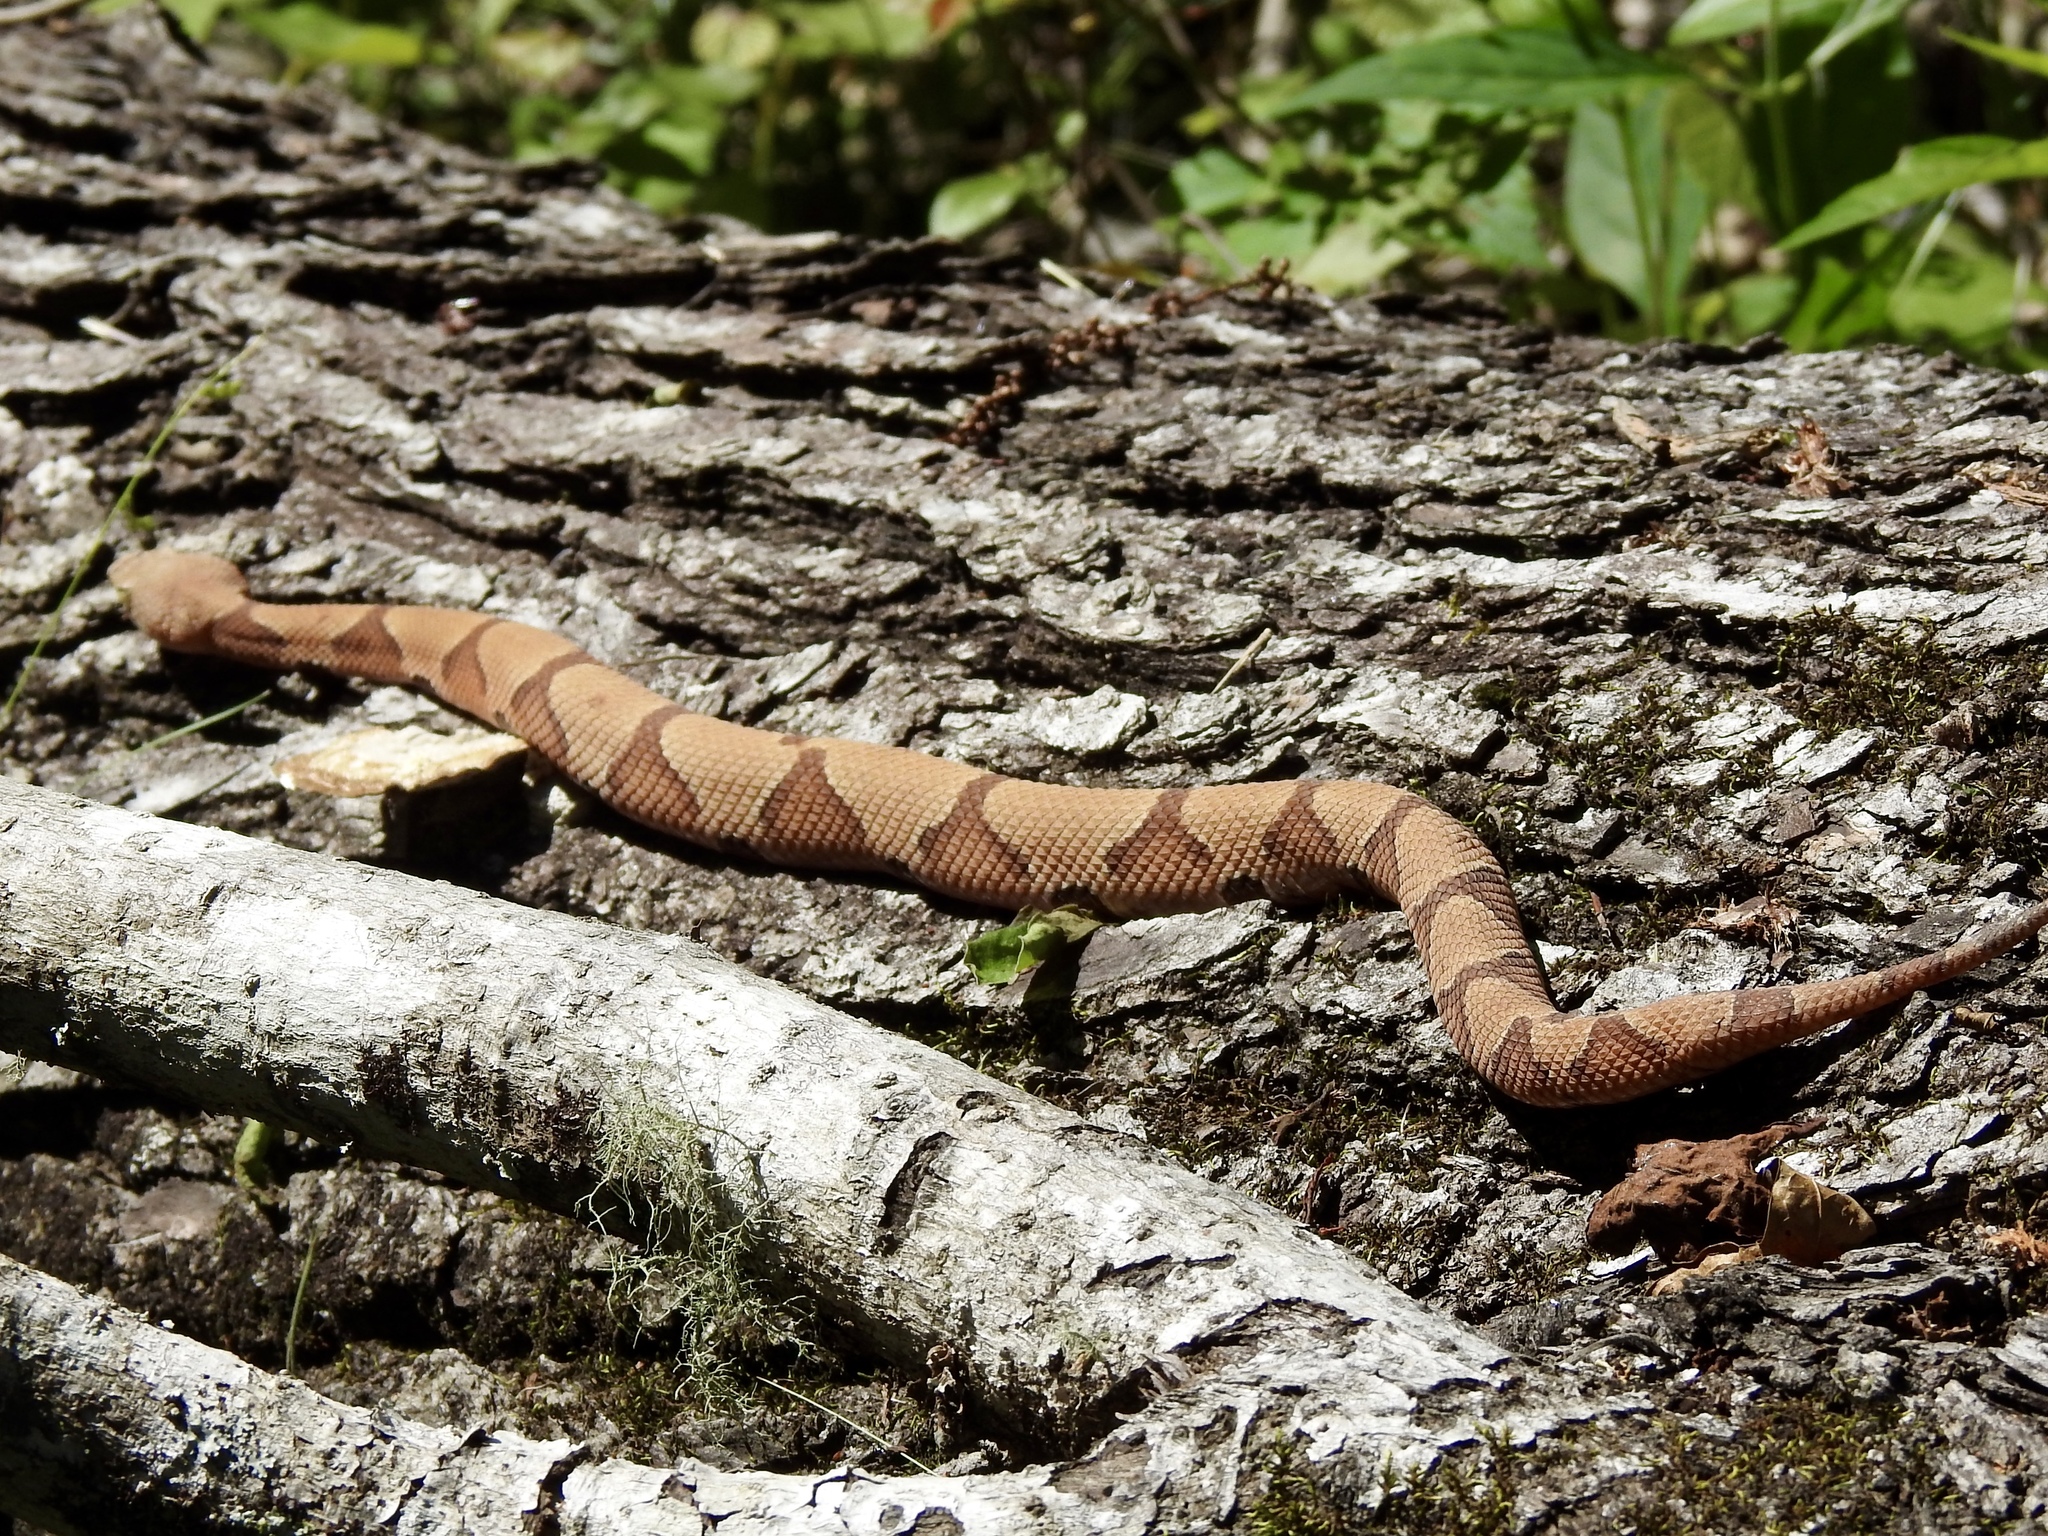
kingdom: Animalia
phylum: Chordata
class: Squamata
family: Viperidae
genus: Agkistrodon
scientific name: Agkistrodon contortrix
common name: Northern copperhead
